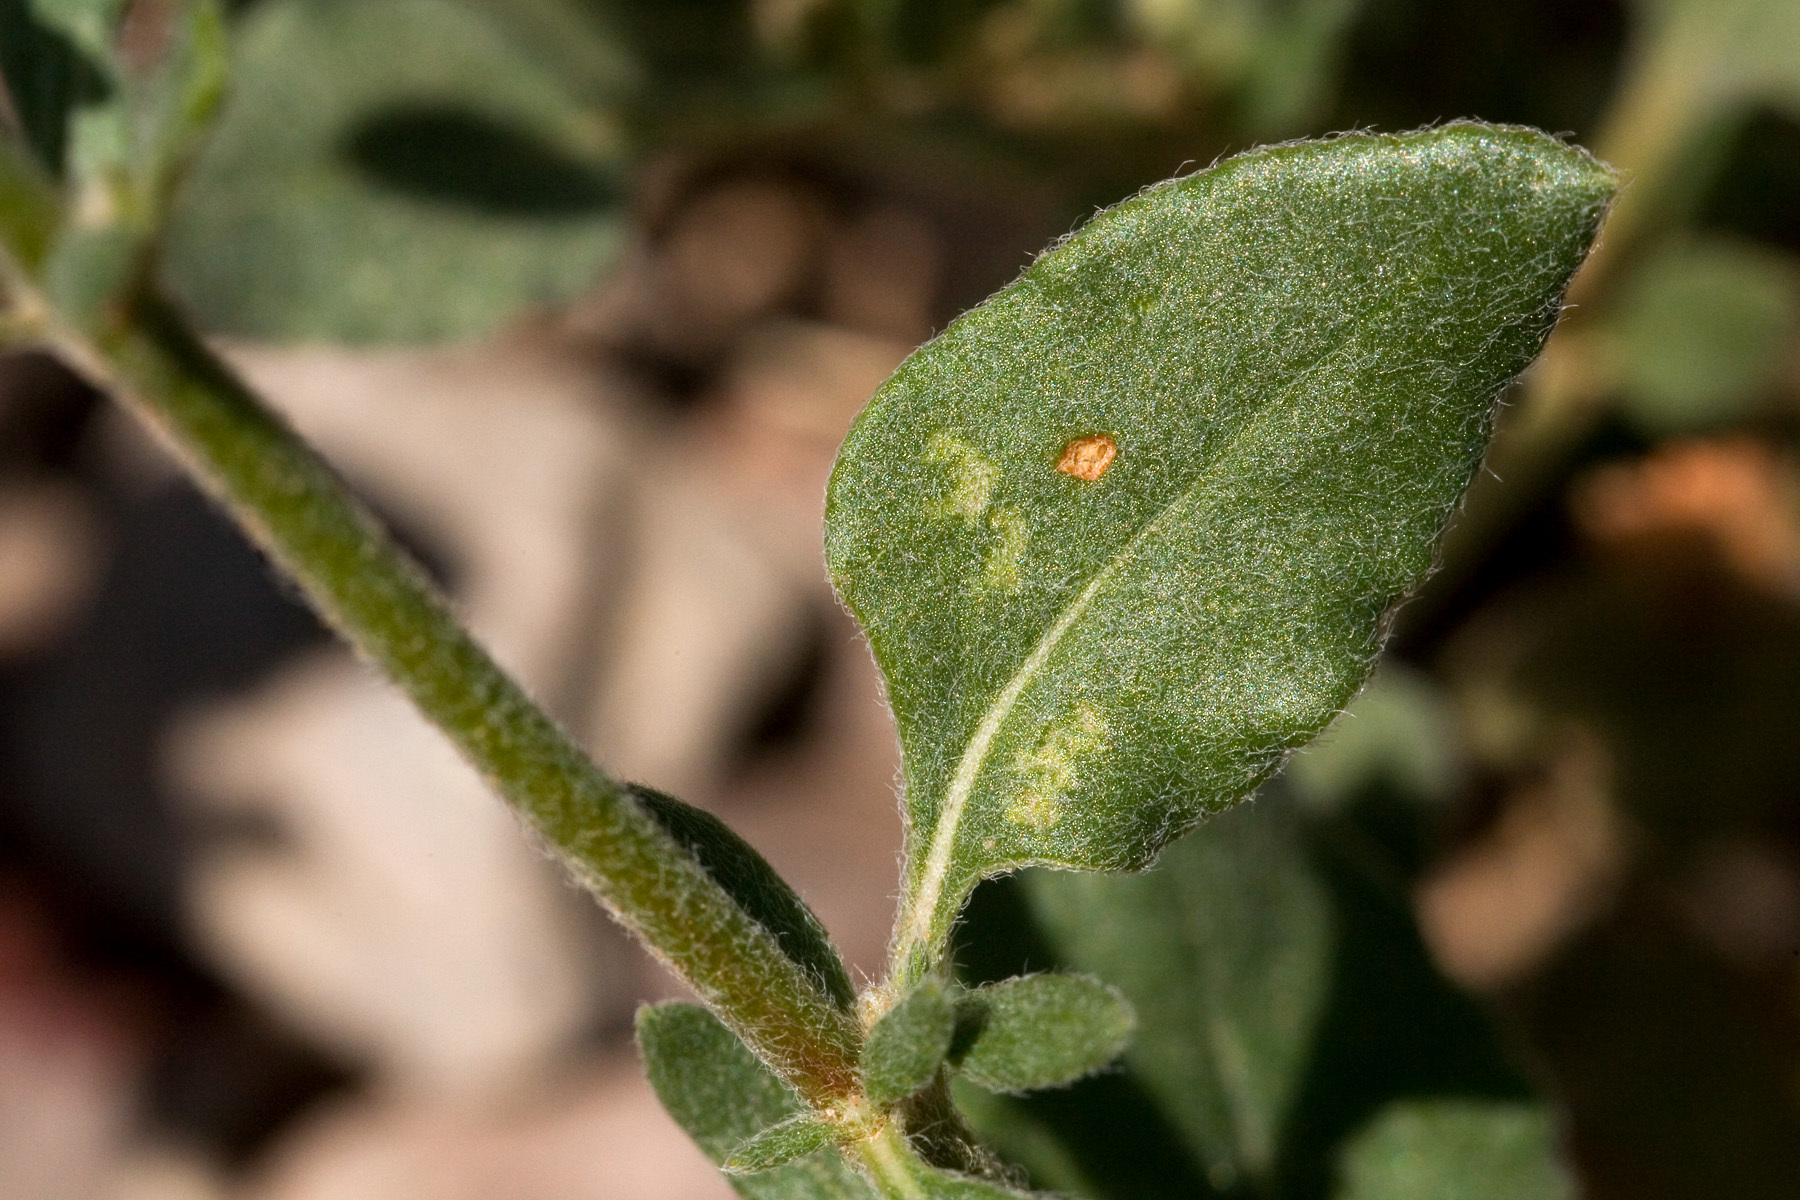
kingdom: Plantae
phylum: Tracheophyta
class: Magnoliopsida
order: Caryophyllales
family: Polygonaceae
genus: Eriogonum
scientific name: Eriogonum abertianum
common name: Abert's wild buckwheat
